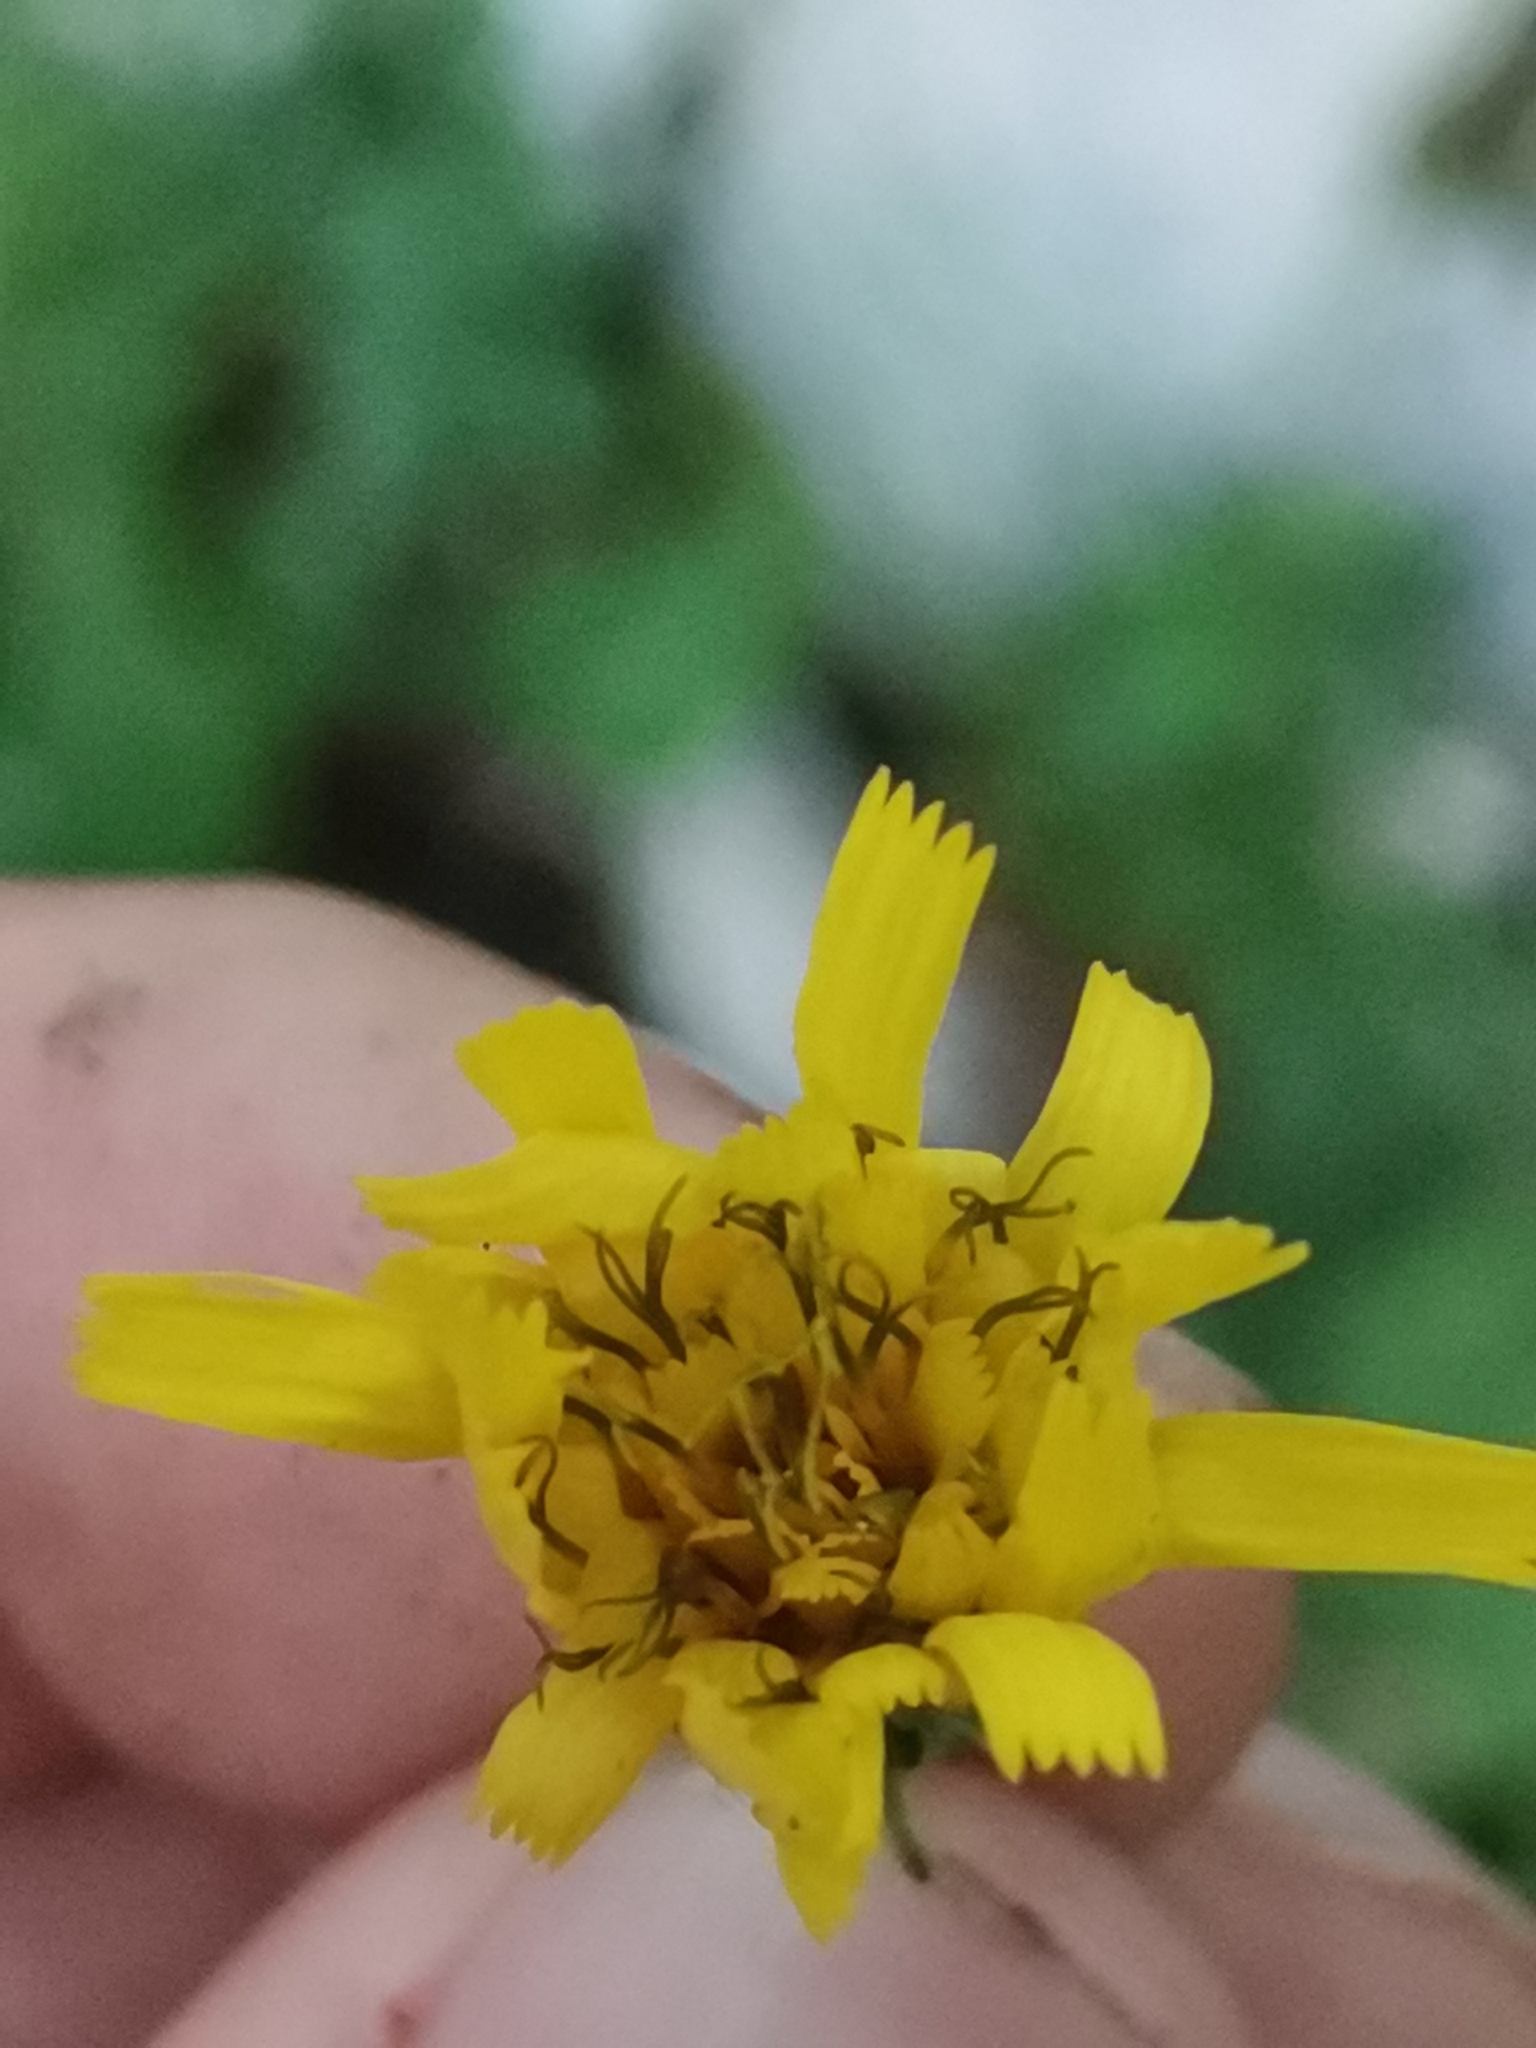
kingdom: Plantae
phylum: Tracheophyta
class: Magnoliopsida
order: Asterales
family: Asteraceae
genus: Hieracium
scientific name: Hieracium racemosum
